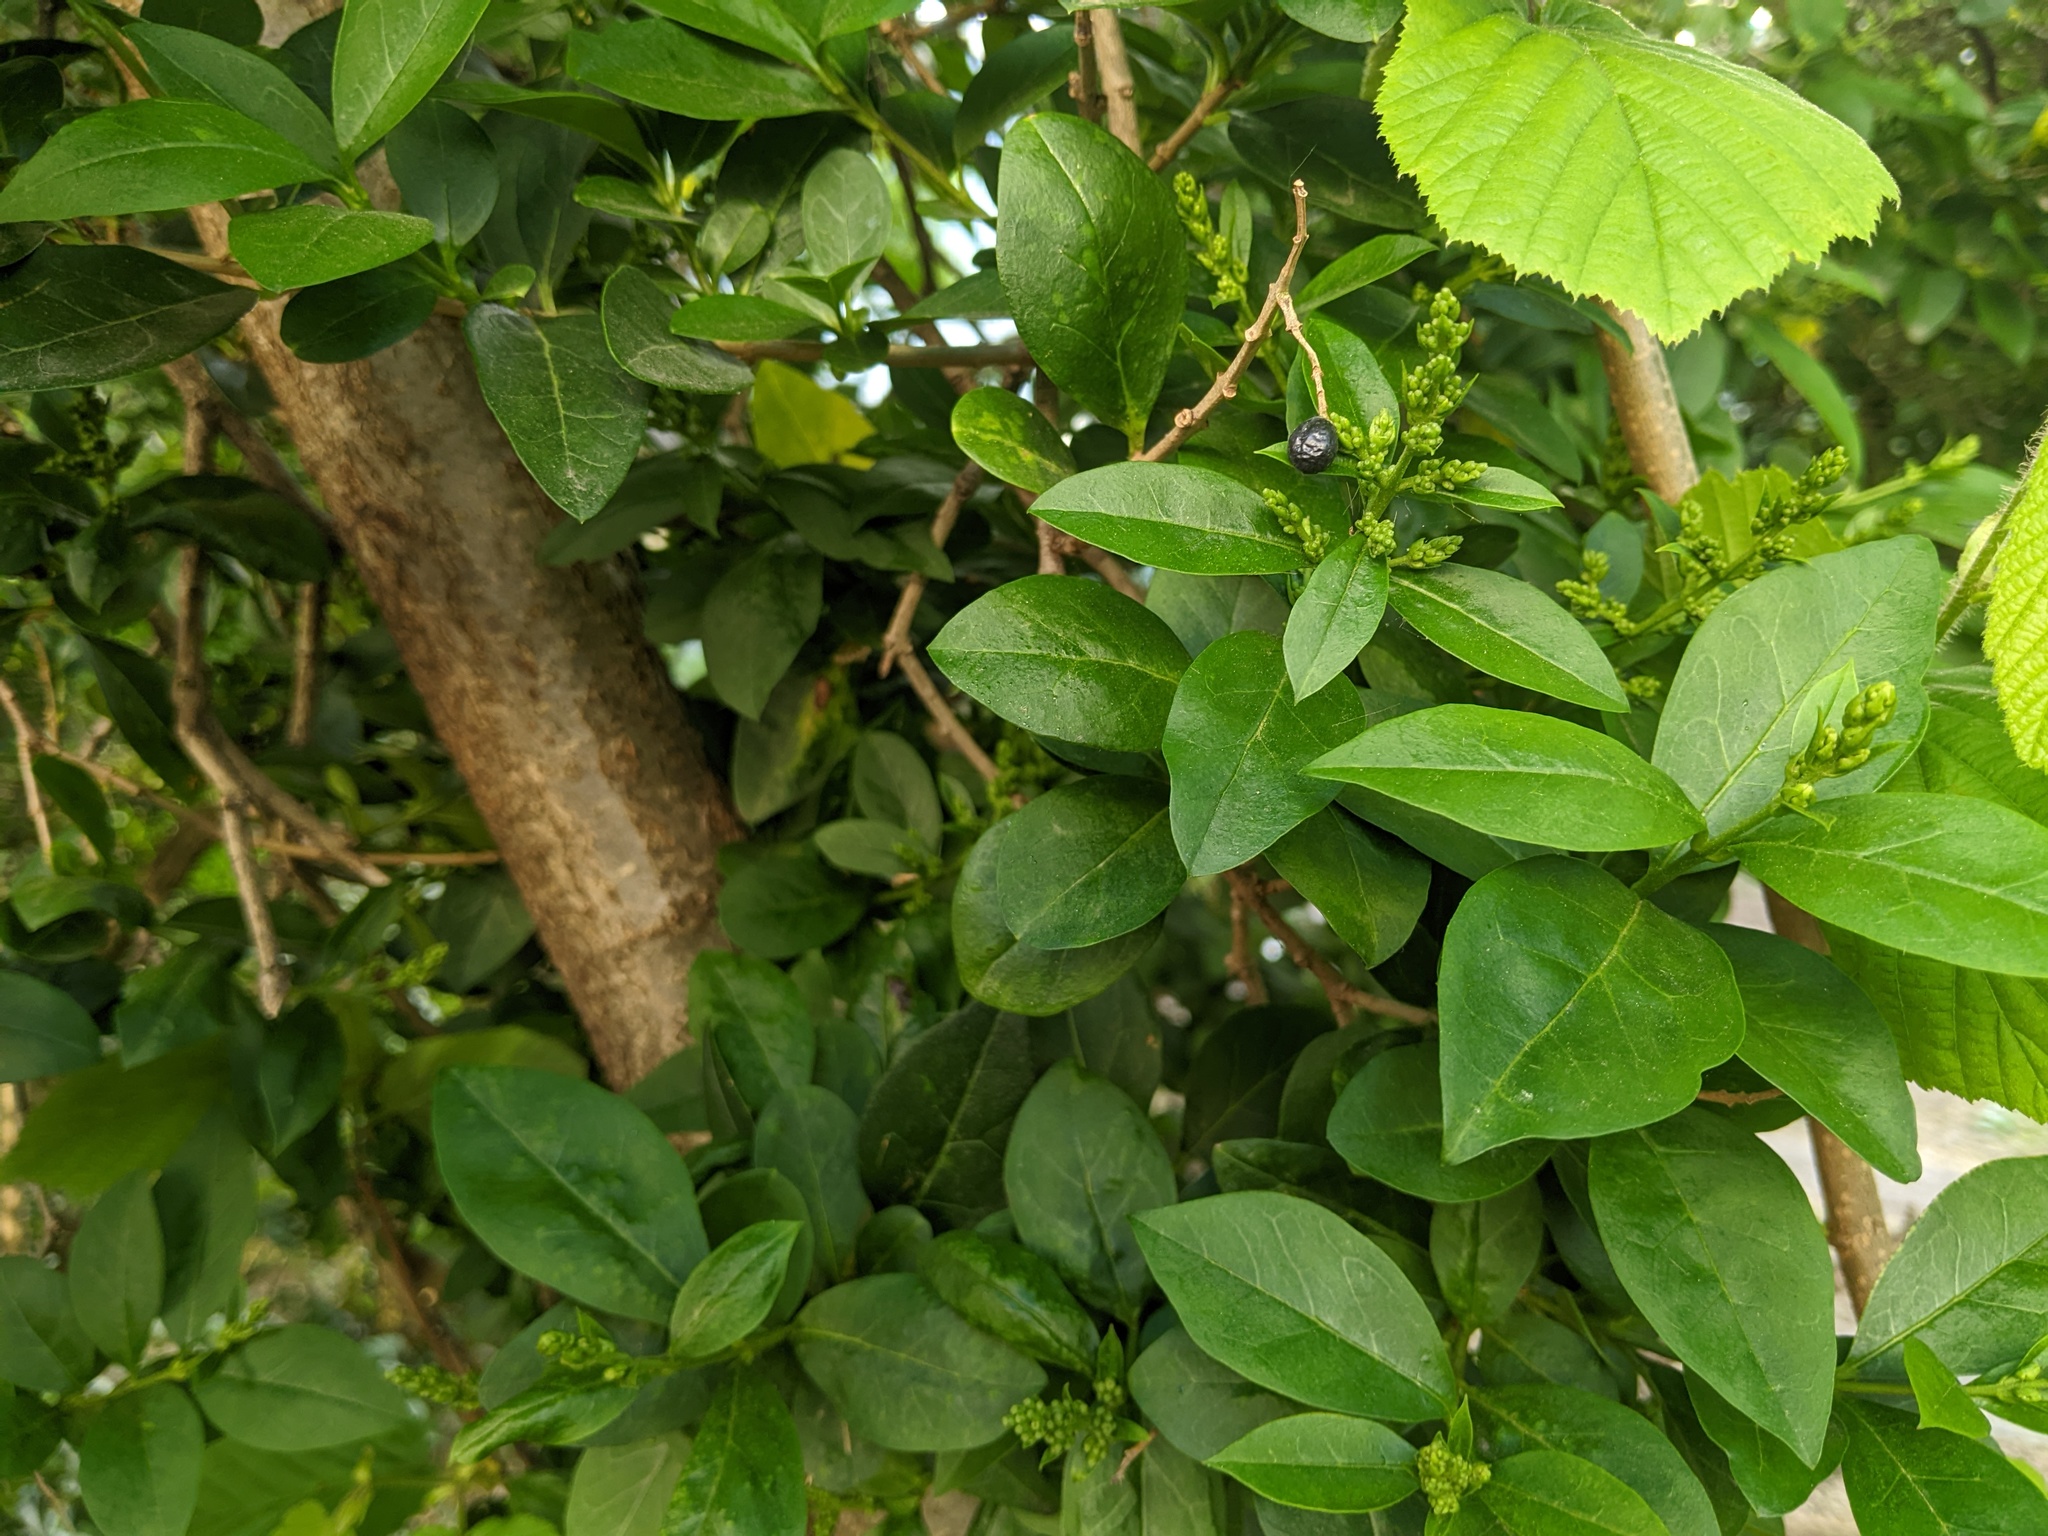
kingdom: Plantae
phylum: Tracheophyta
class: Magnoliopsida
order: Lamiales
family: Oleaceae
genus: Ligustrum
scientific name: Ligustrum ovalifolium
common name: California privet
